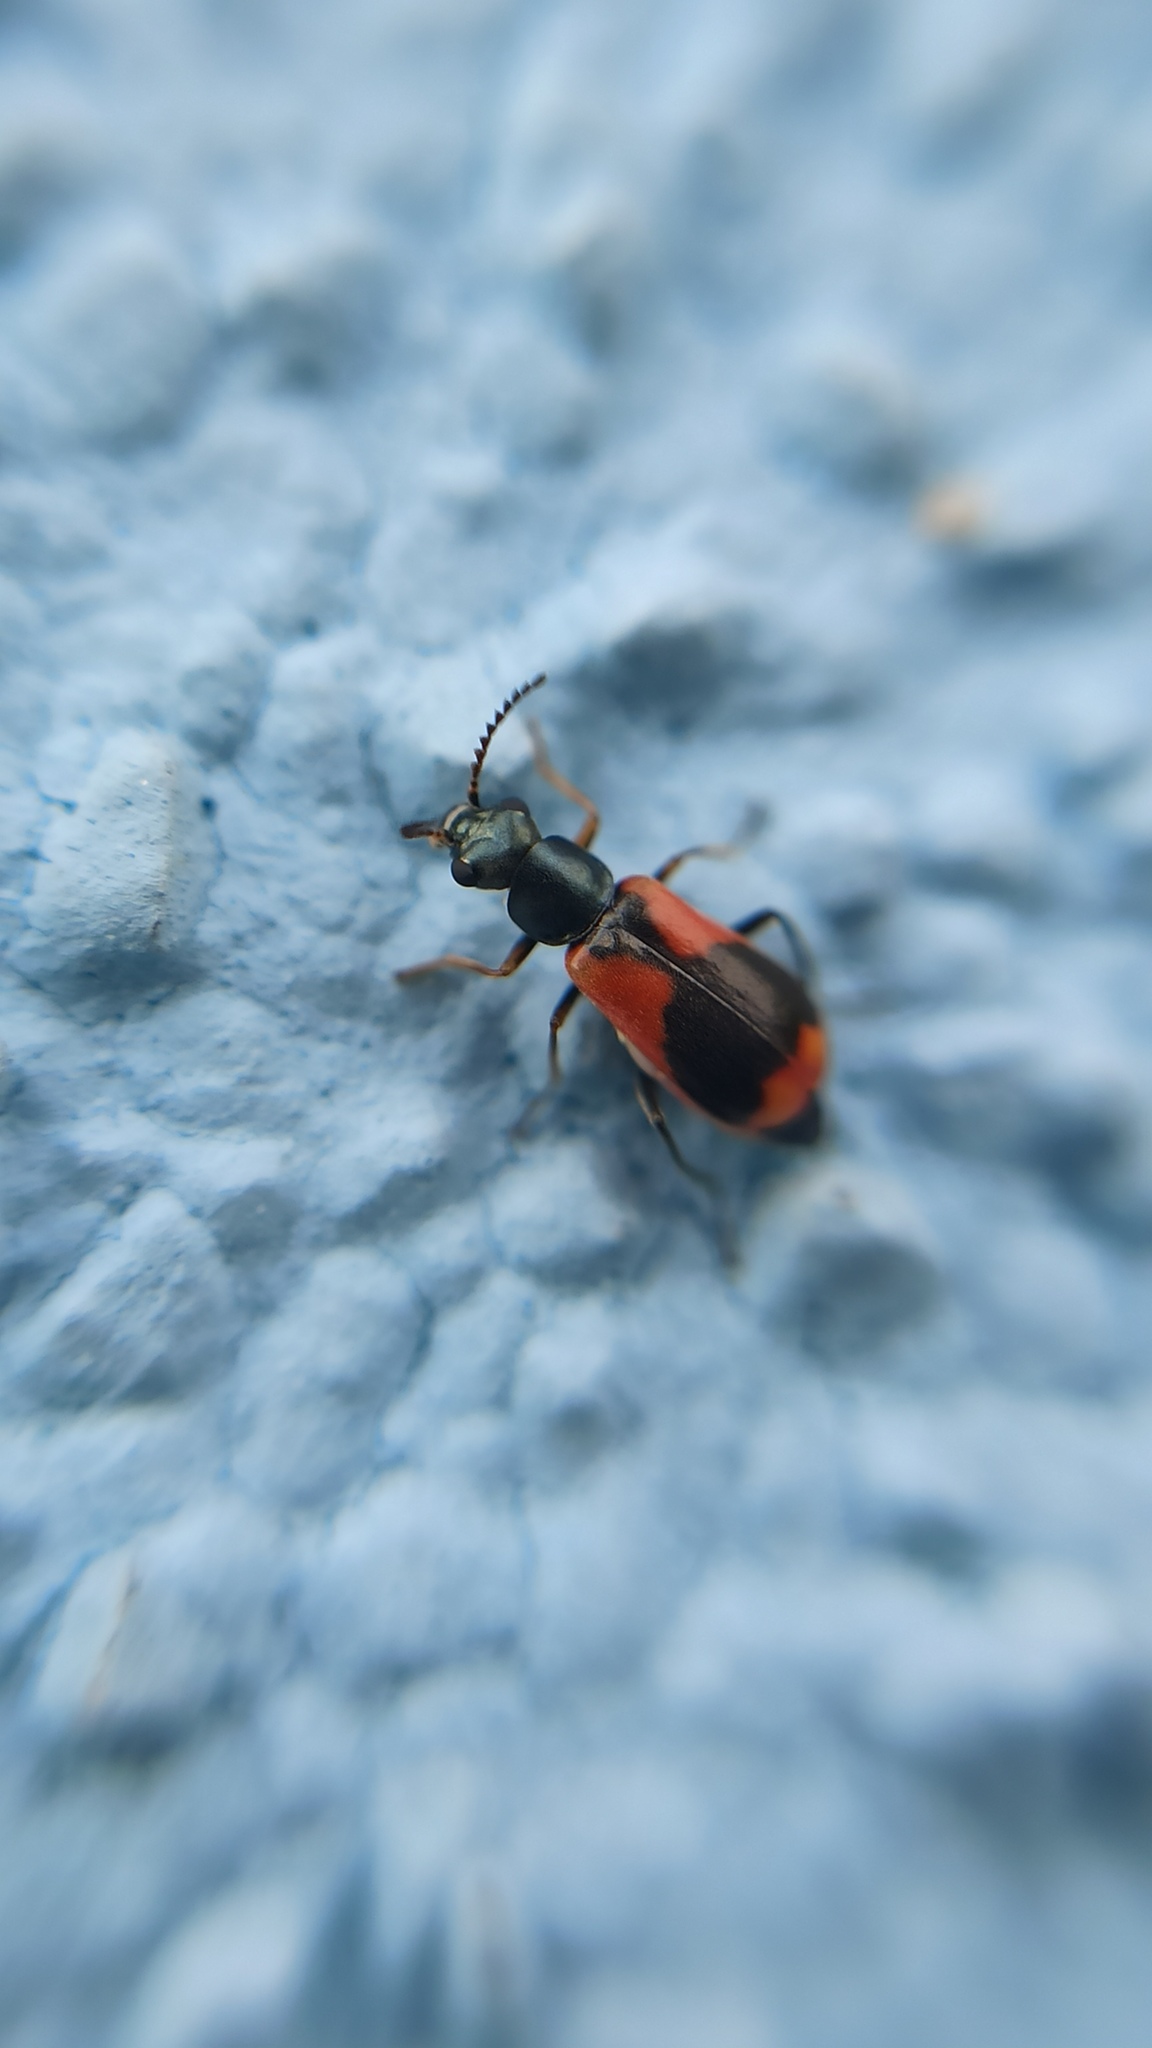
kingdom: Animalia
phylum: Arthropoda
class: Insecta
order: Coleoptera
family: Melyridae
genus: Anthocomus
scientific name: Anthocomus equestris
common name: Black-banded soft-winged flower beetle
